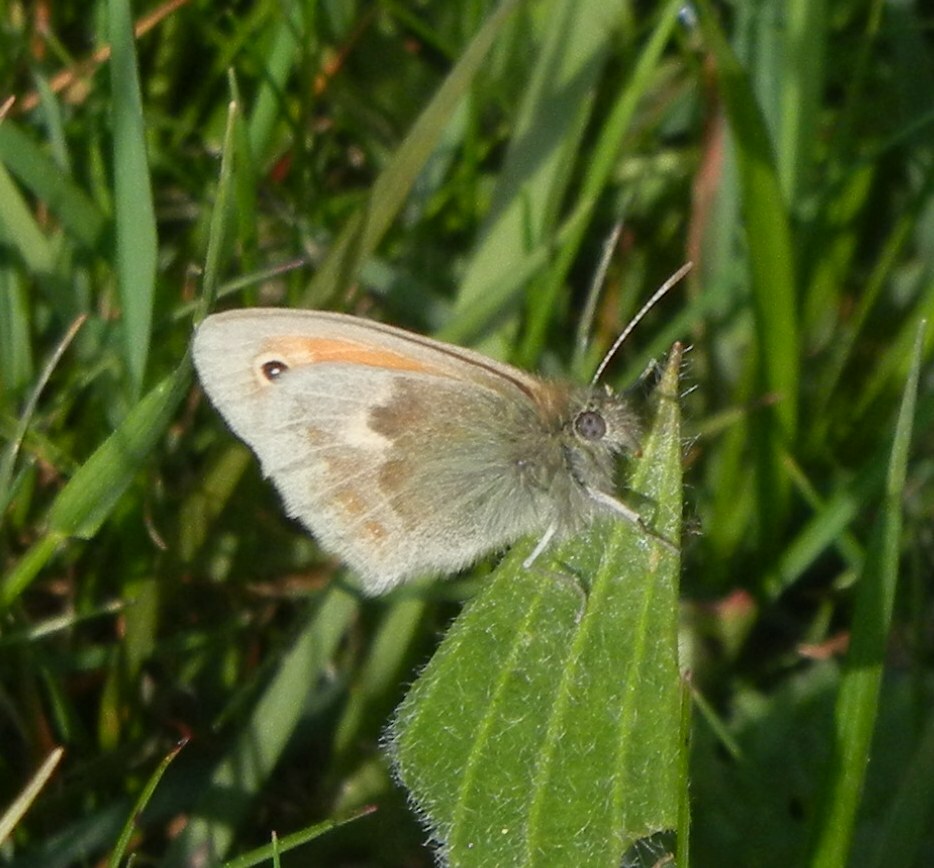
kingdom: Animalia
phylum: Arthropoda
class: Insecta
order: Lepidoptera
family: Nymphalidae
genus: Coenonympha
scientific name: Coenonympha pamphilus
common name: Small heath
